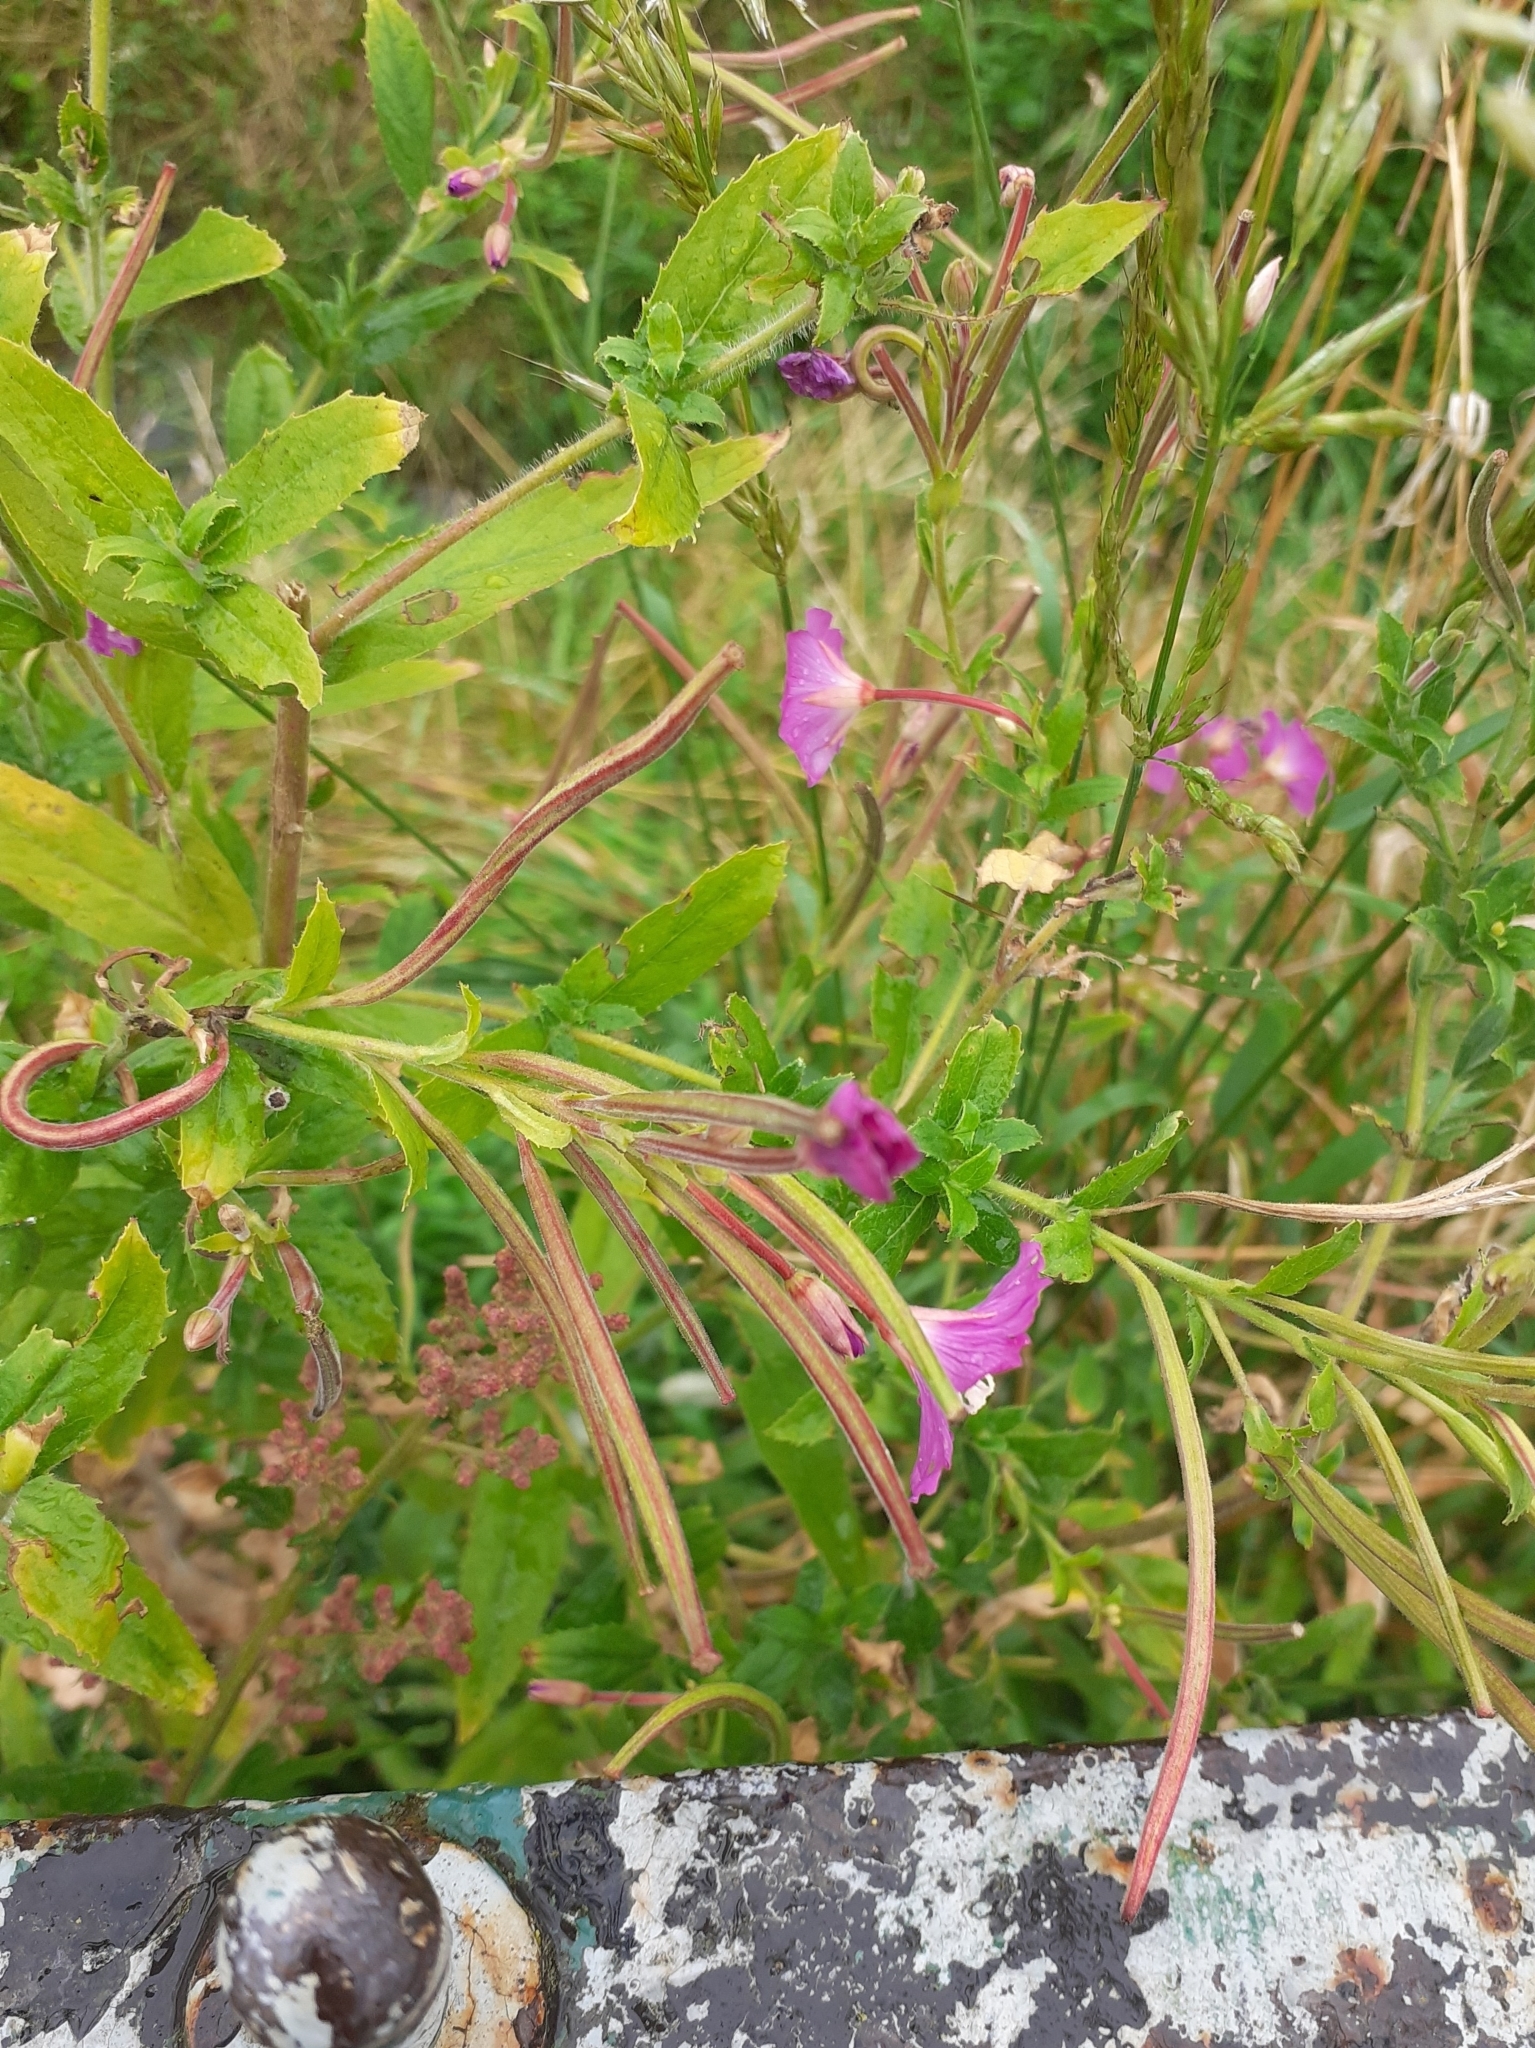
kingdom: Plantae
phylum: Tracheophyta
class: Magnoliopsida
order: Myrtales
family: Onagraceae
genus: Epilobium
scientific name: Epilobium hirsutum
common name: Great willowherb
